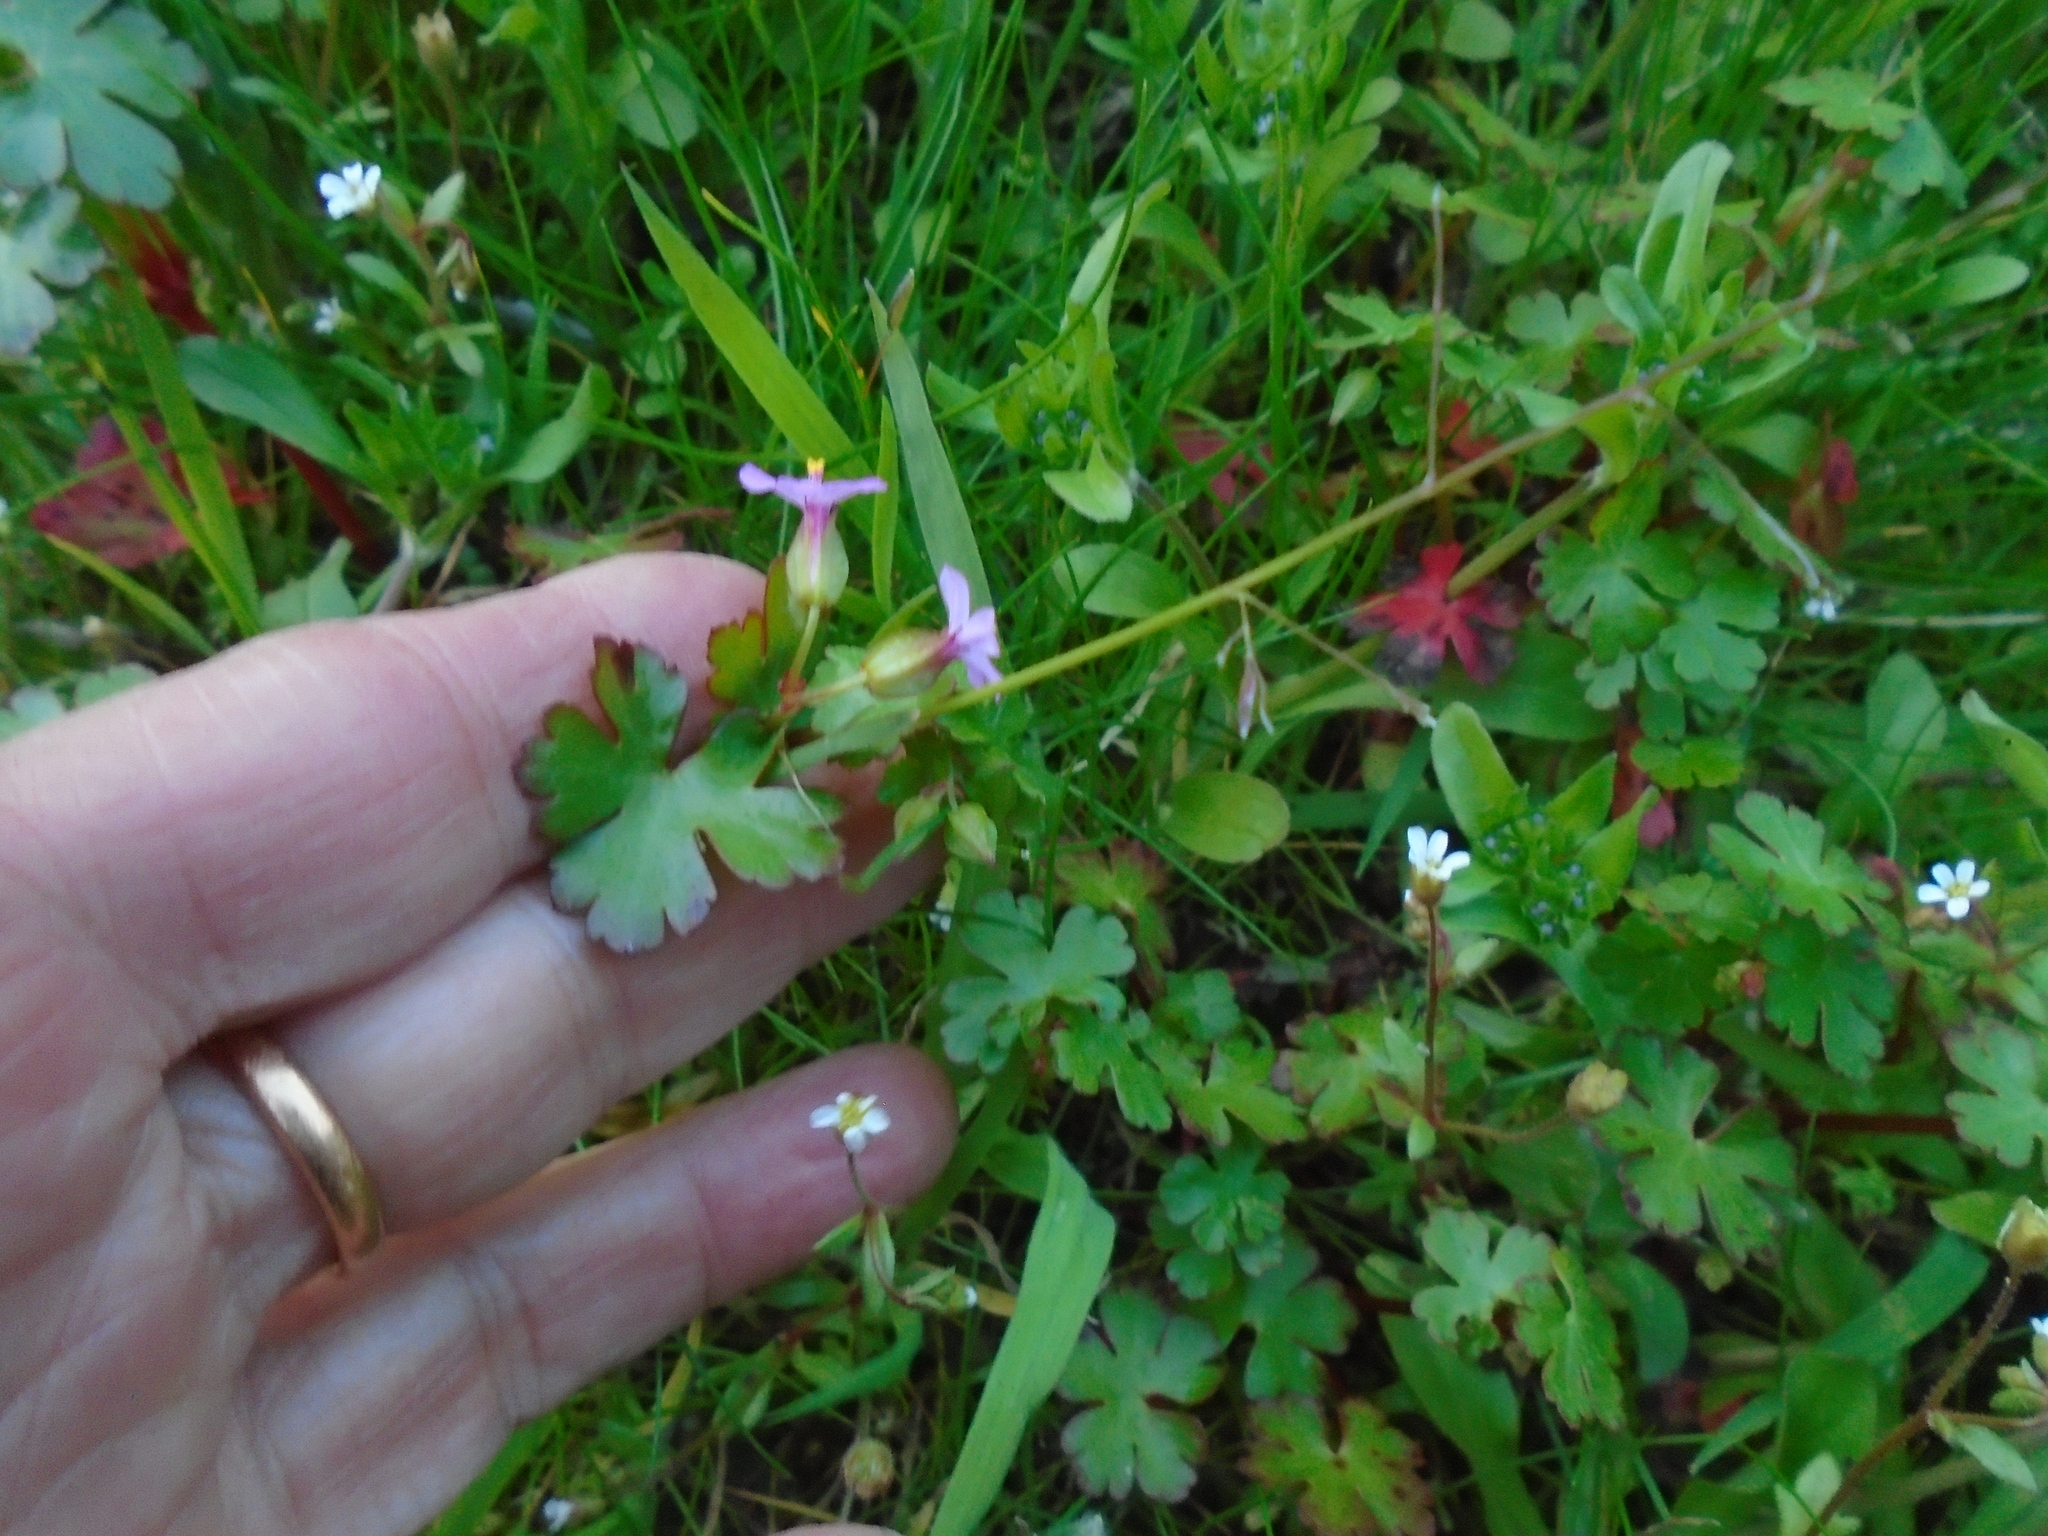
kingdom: Plantae
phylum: Tracheophyta
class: Magnoliopsida
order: Geraniales
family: Geraniaceae
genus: Geranium
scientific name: Geranium lucidum
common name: Shining crane's-bill
